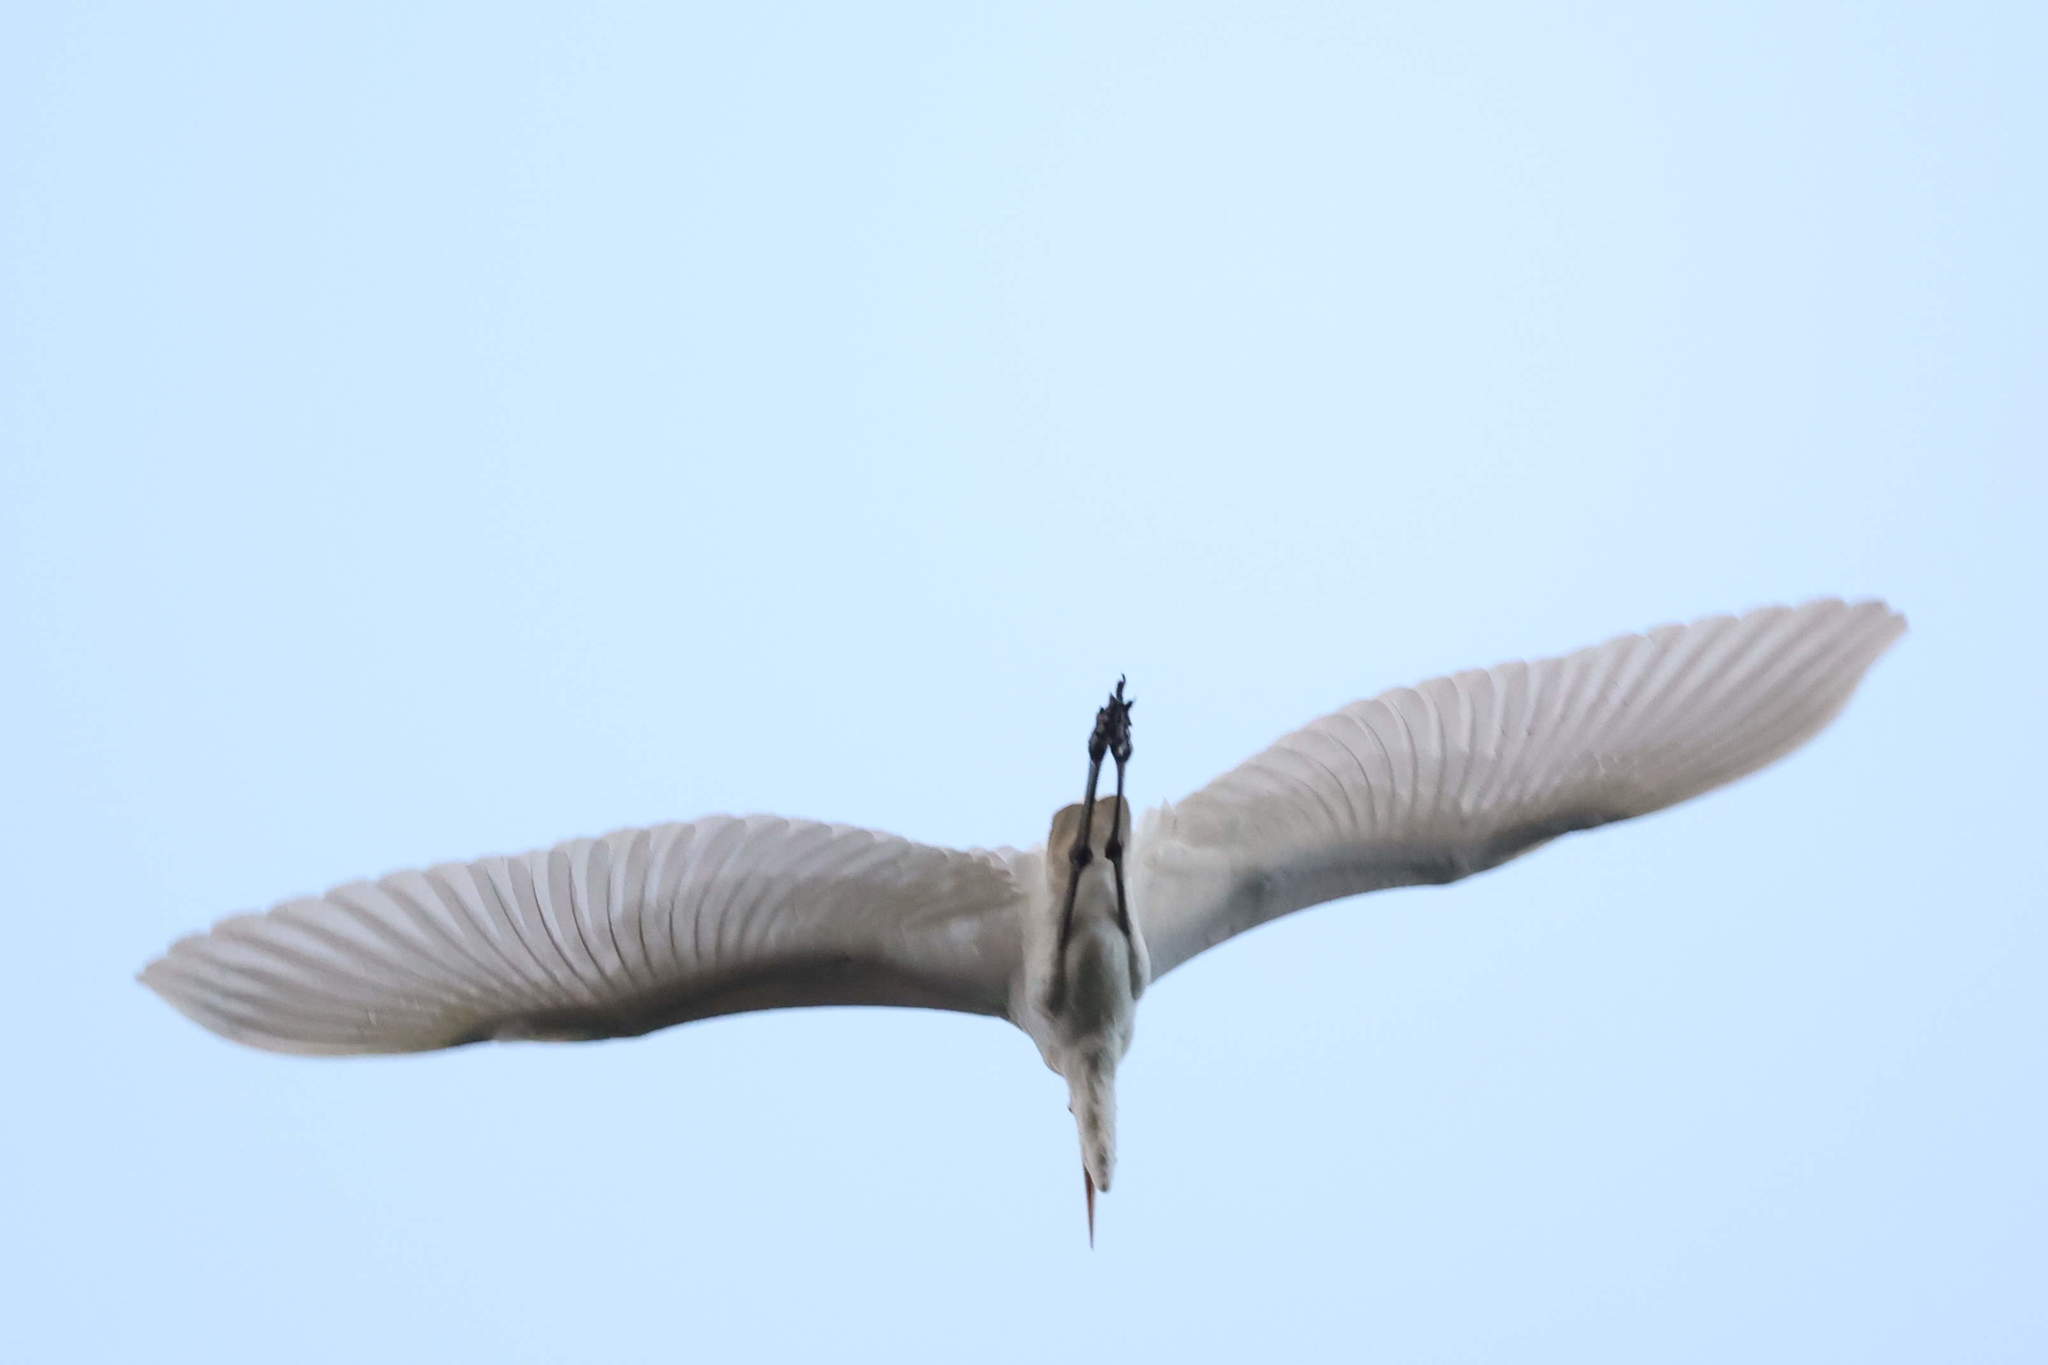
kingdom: Animalia
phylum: Chordata
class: Aves
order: Pelecaniformes
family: Ardeidae
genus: Ardea
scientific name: Ardea alba
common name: Great egret
